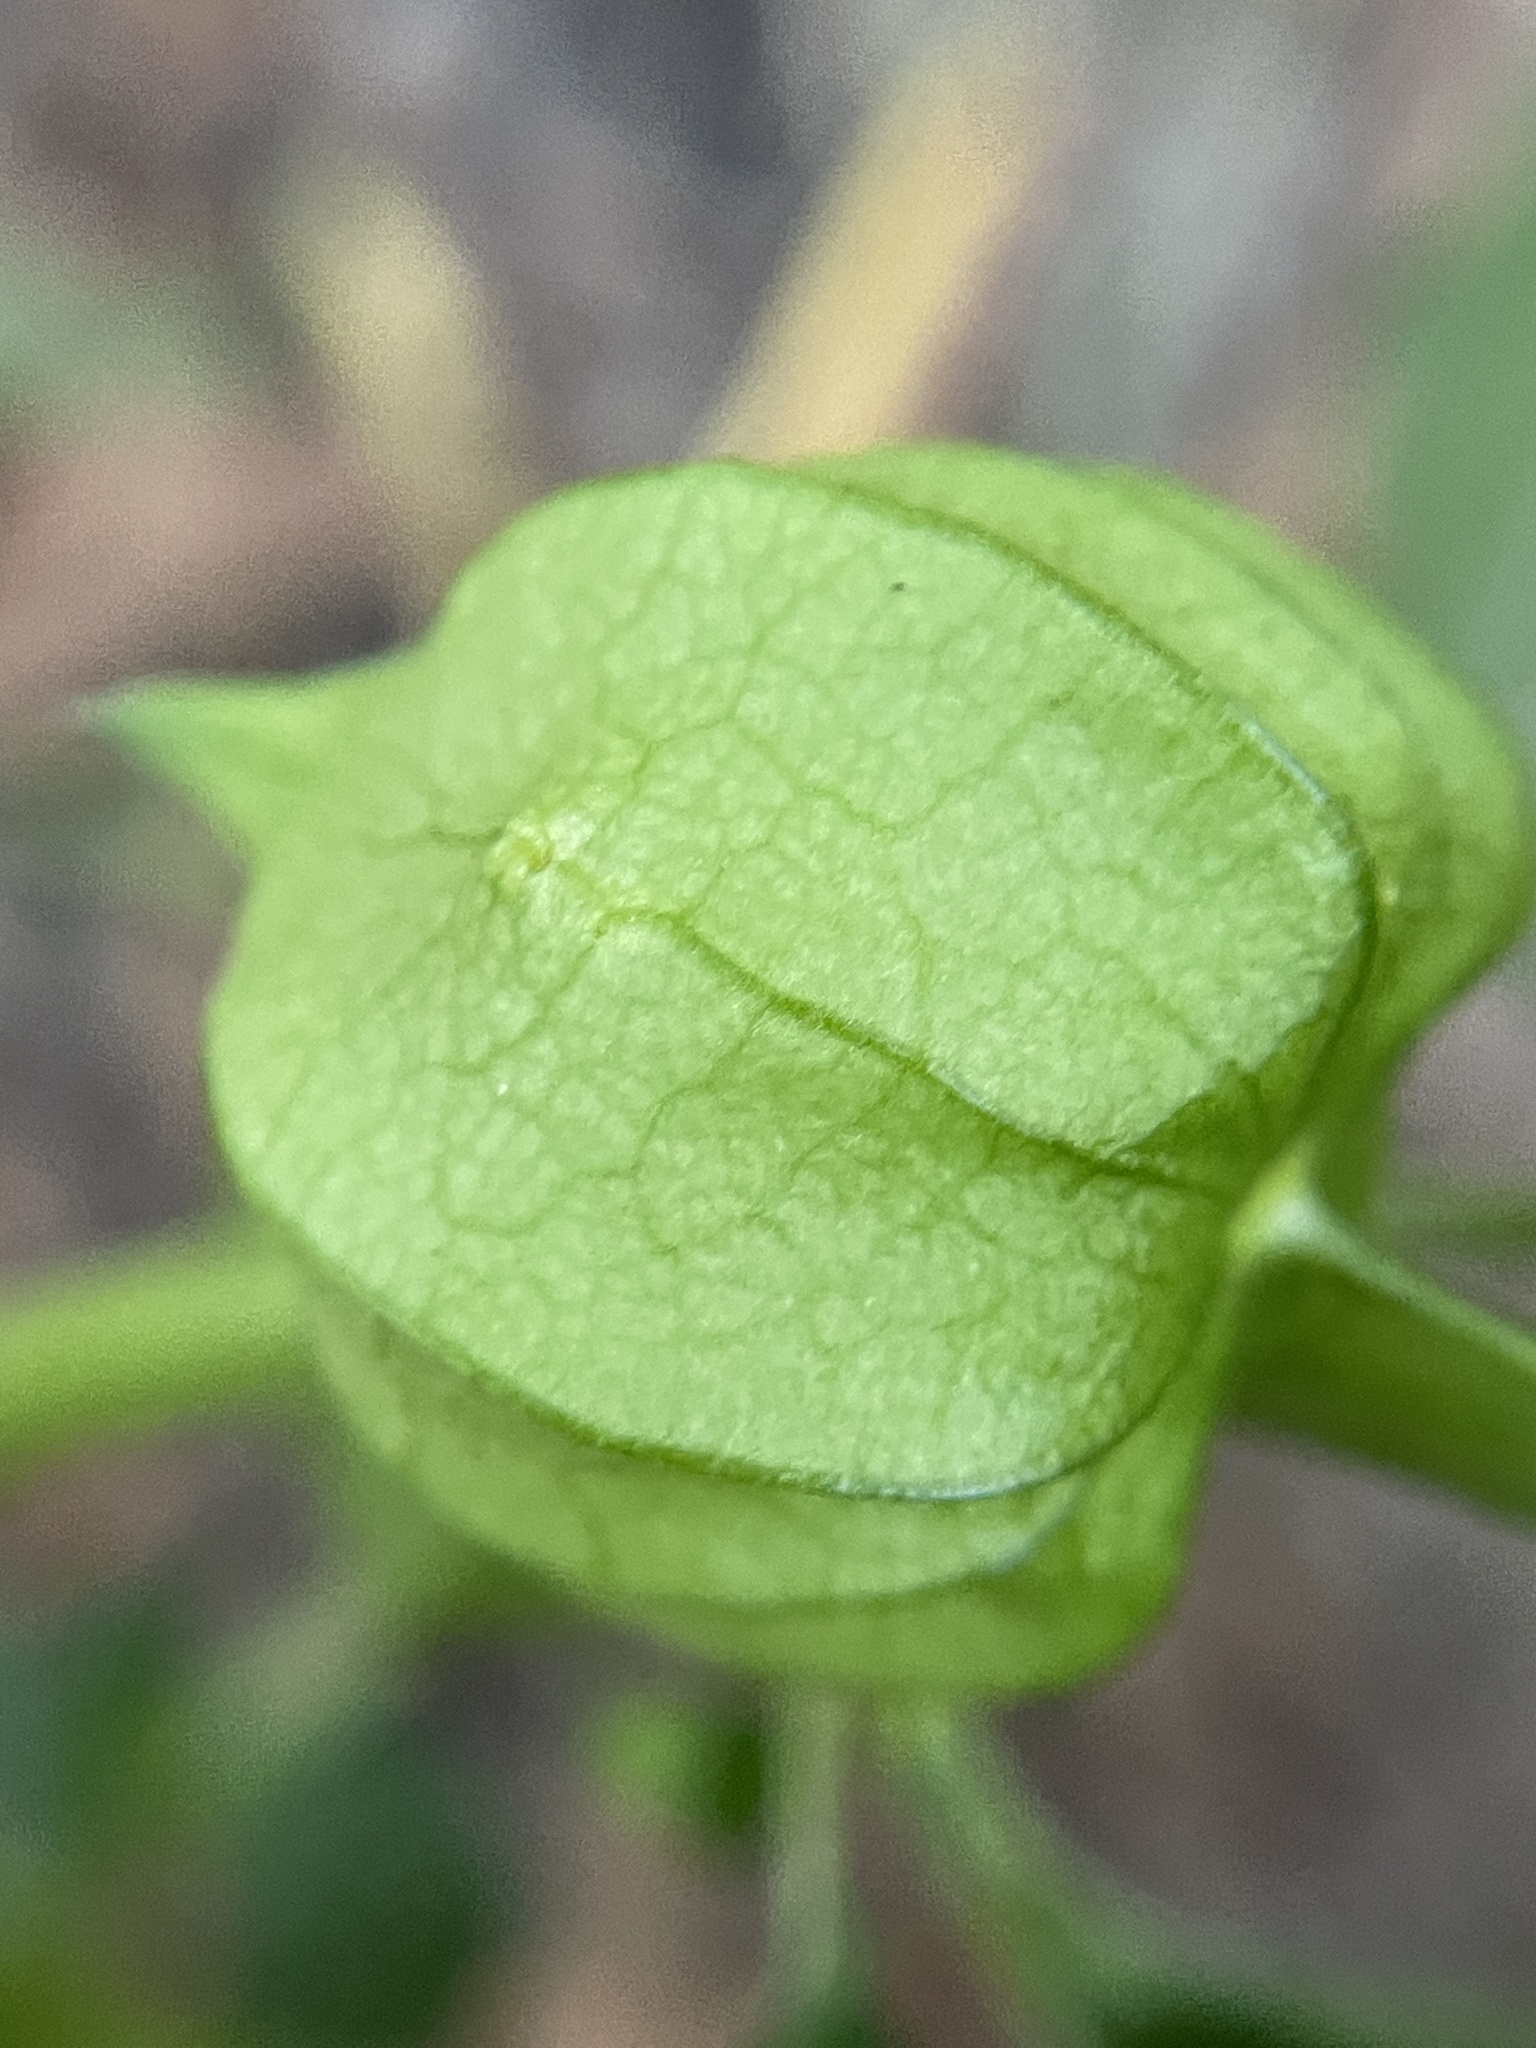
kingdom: Plantae
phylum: Tracheophyta
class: Magnoliopsida
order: Solanales
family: Solanaceae
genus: Physalis
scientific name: Physalis angulata
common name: Angular winter-cherry
